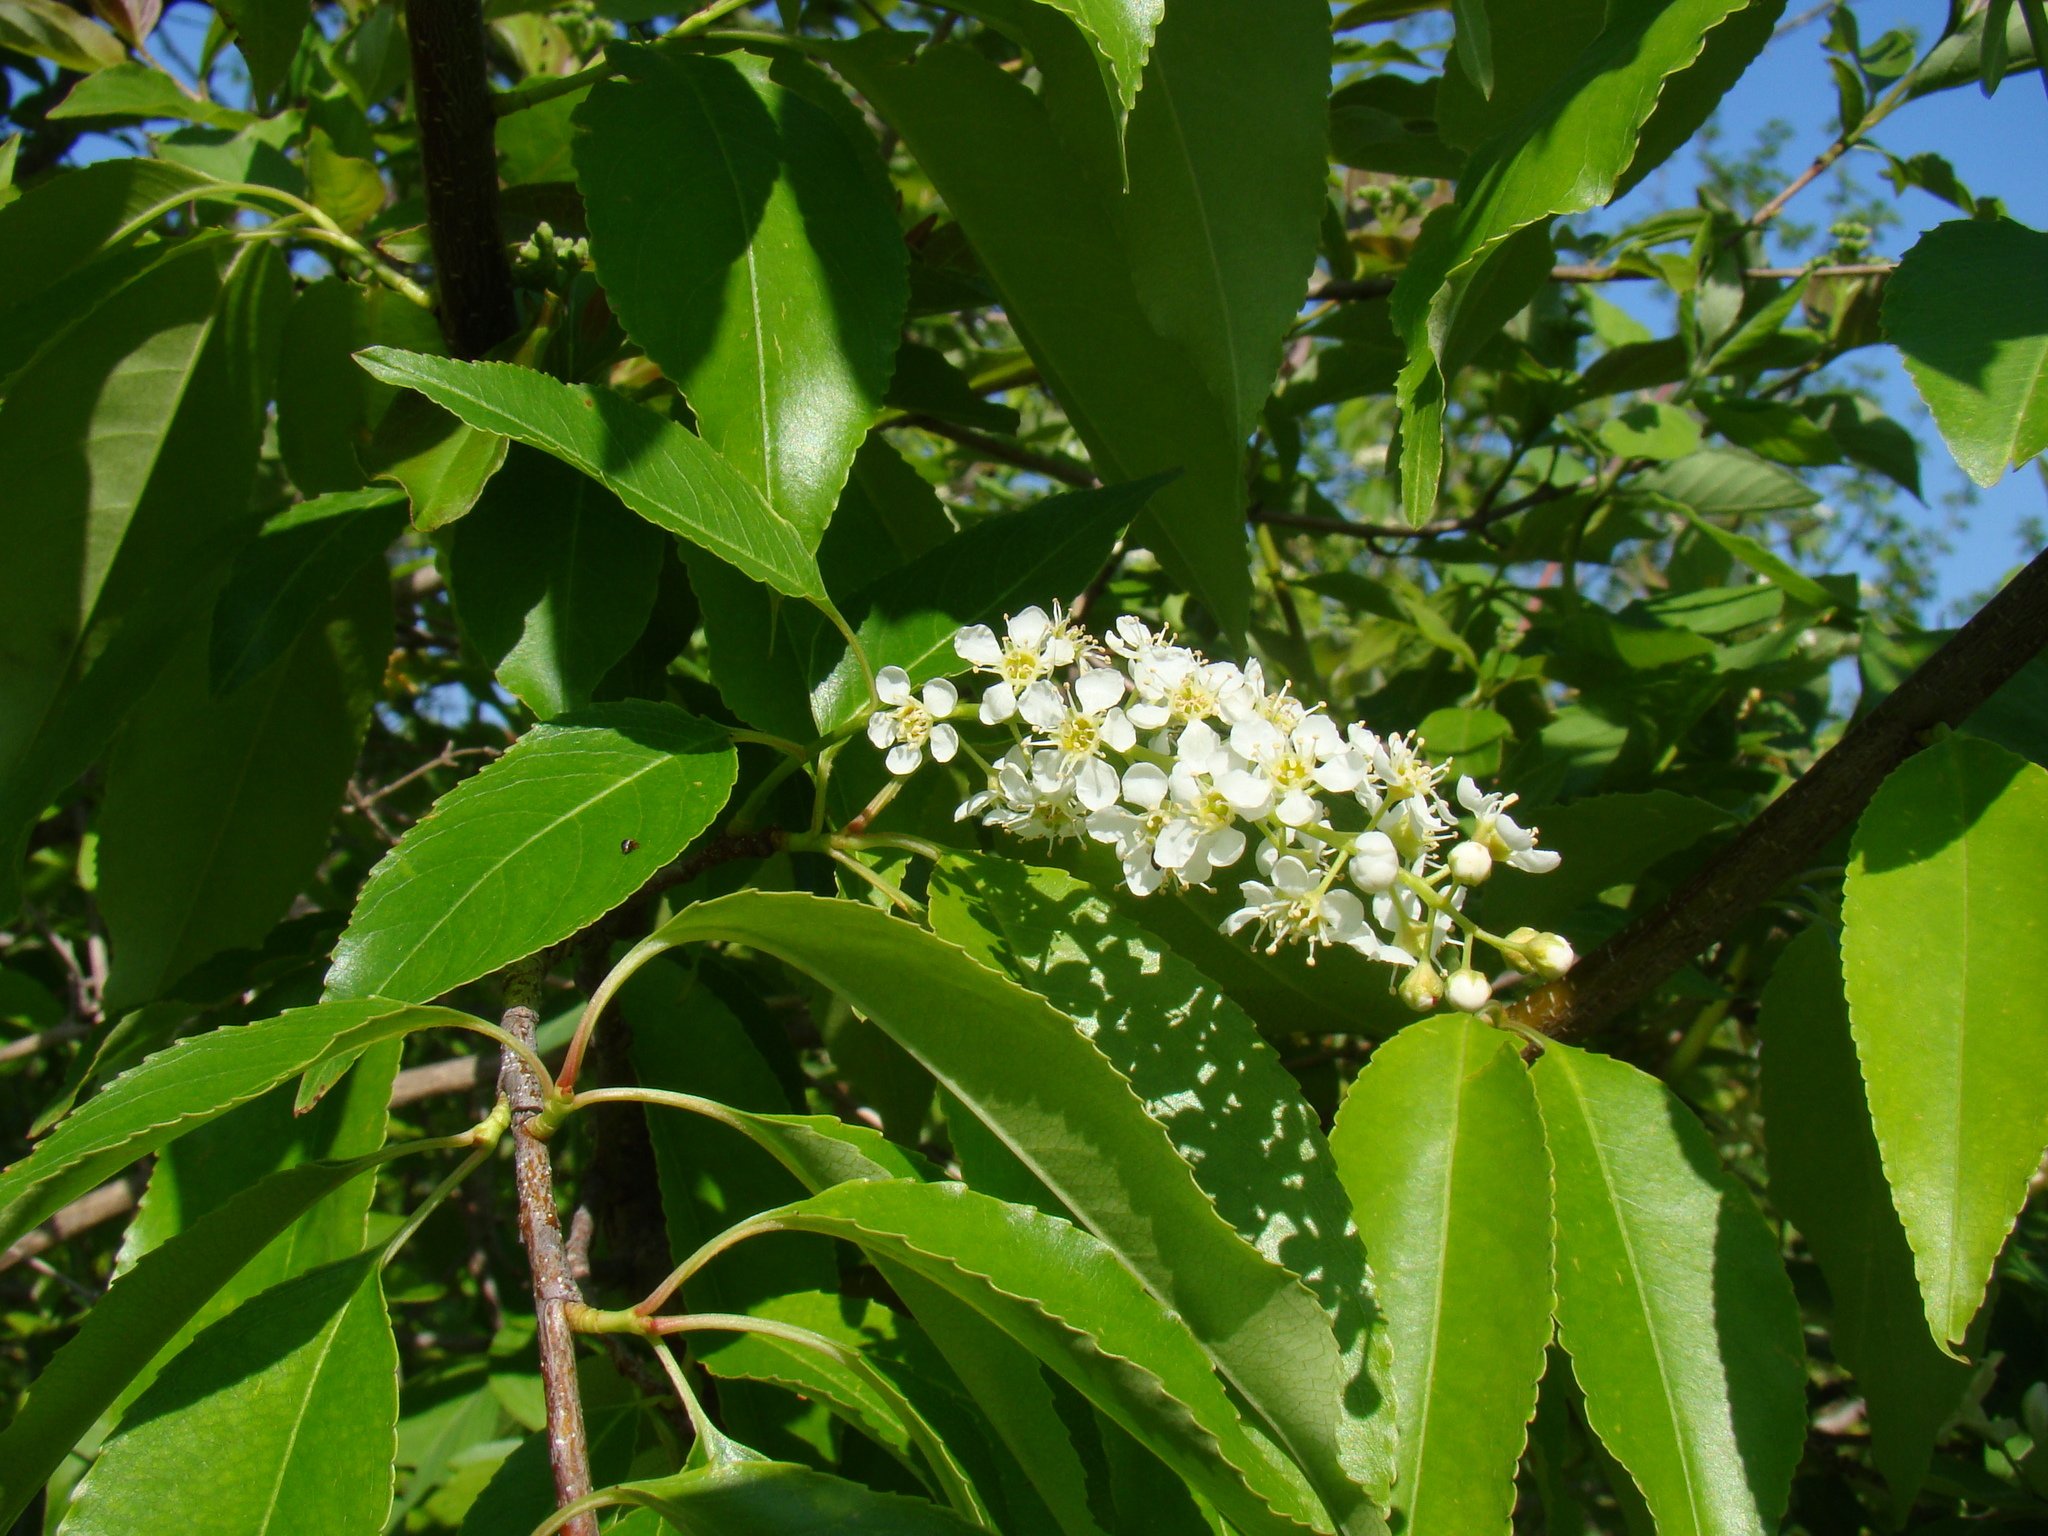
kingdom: Plantae
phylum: Tracheophyta
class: Magnoliopsida
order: Rosales
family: Rosaceae
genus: Prunus
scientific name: Prunus serotina
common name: Black cherry
